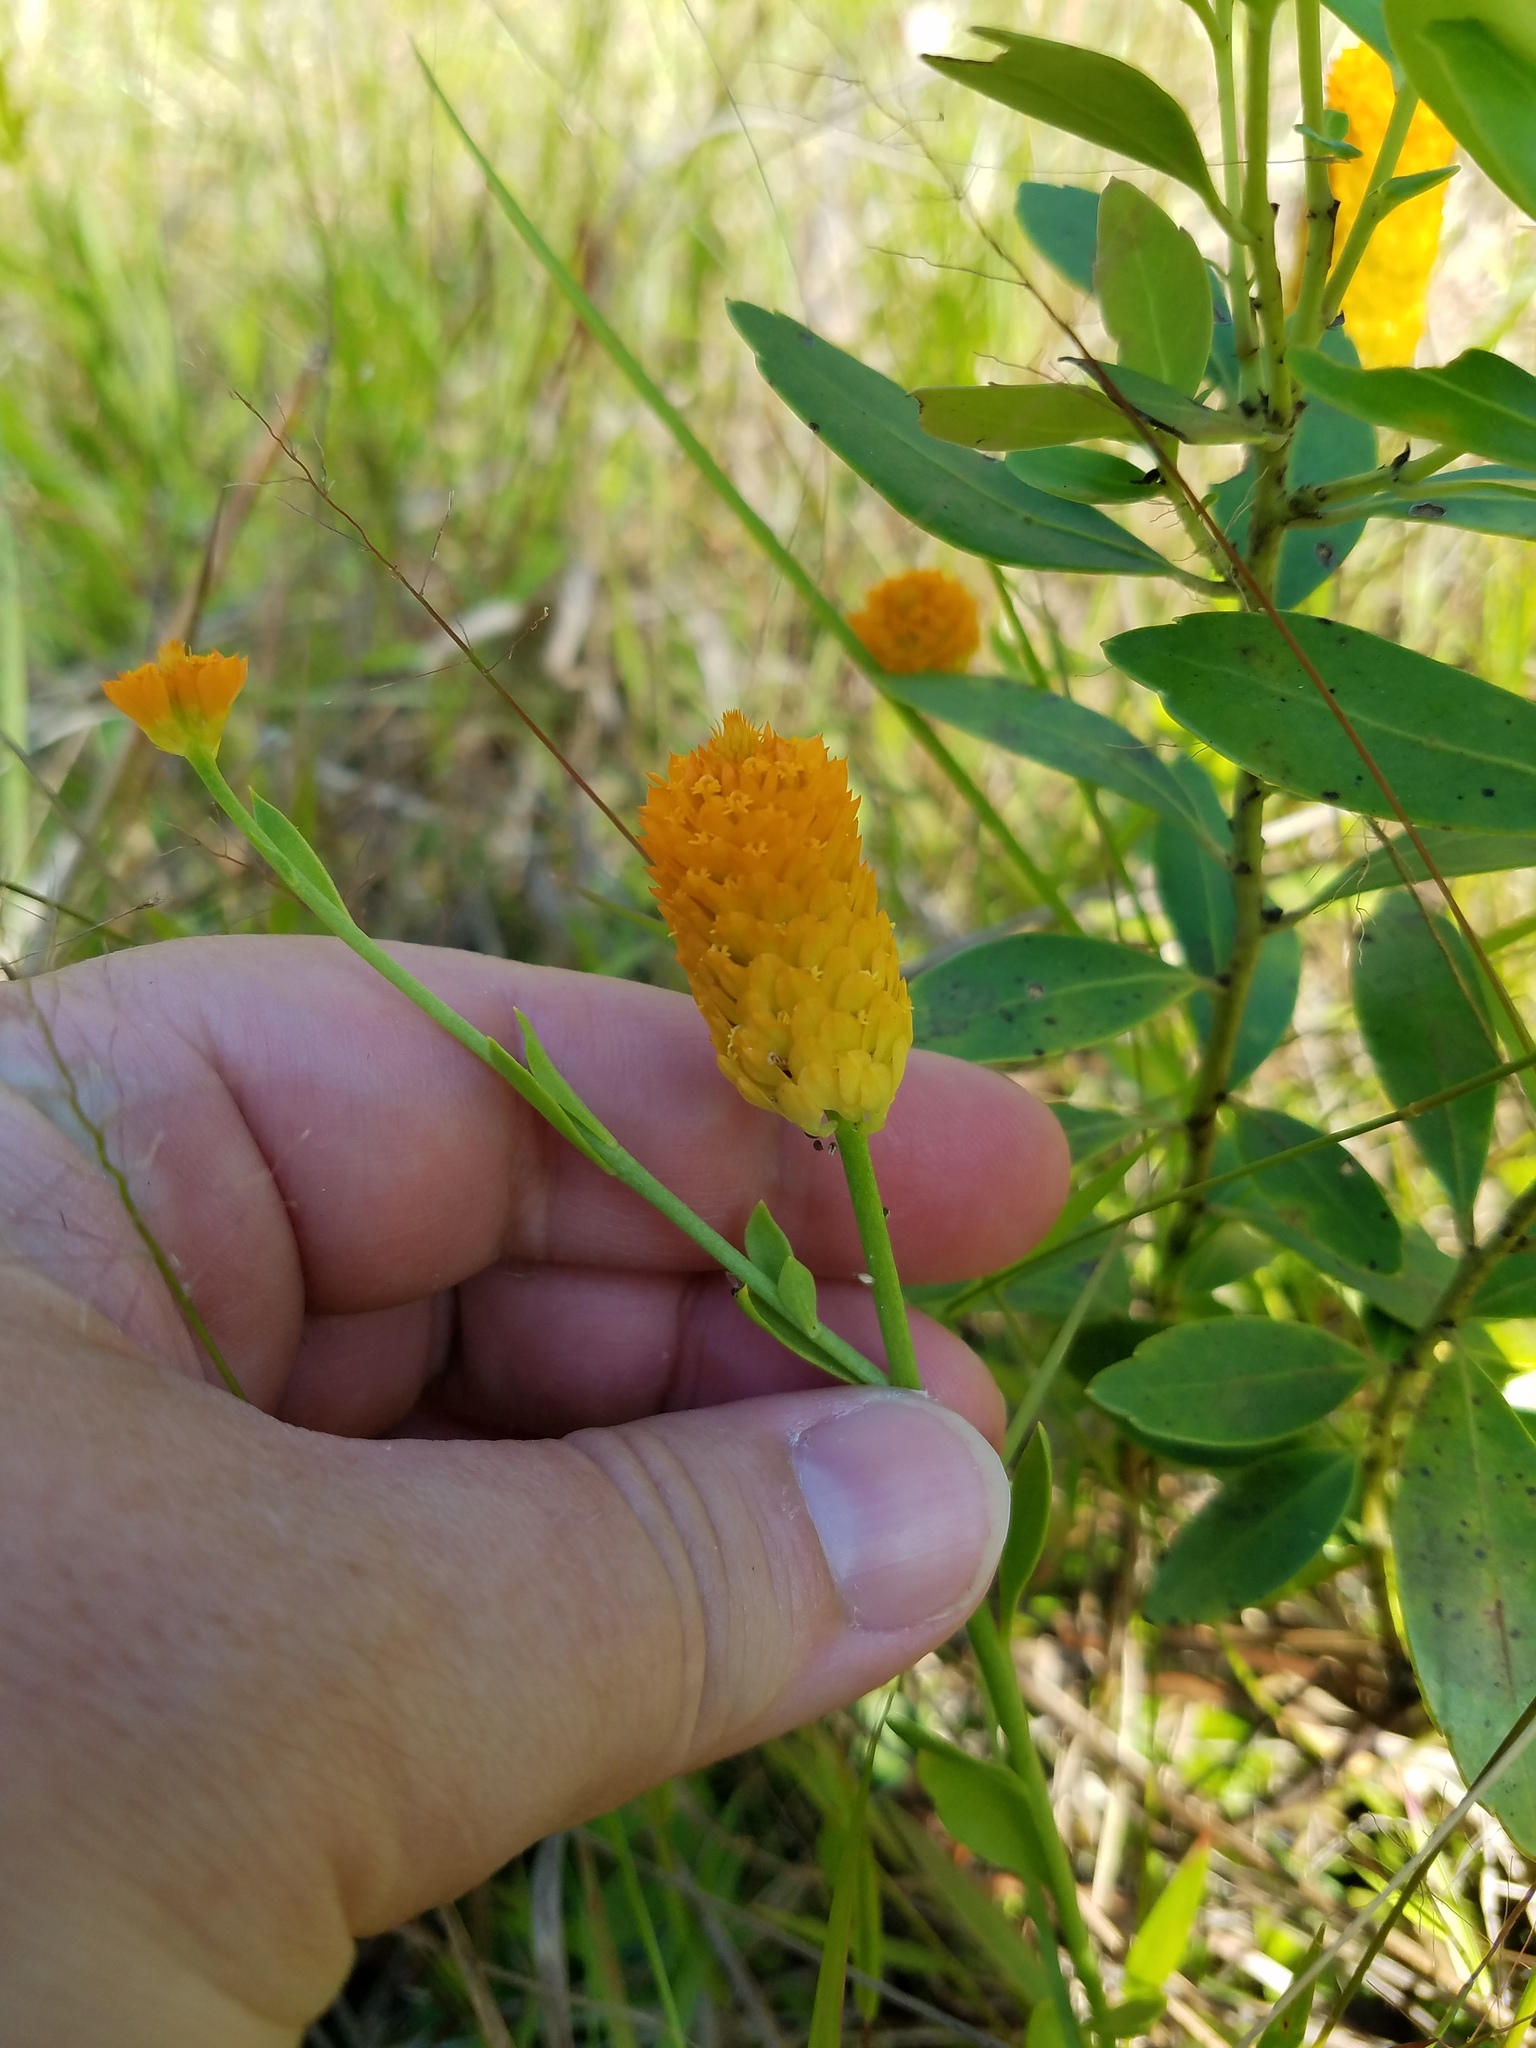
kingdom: Plantae
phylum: Tracheophyta
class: Magnoliopsida
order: Fabales
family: Polygalaceae
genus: Polygala
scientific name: Polygala lutea
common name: Orange milkwort
